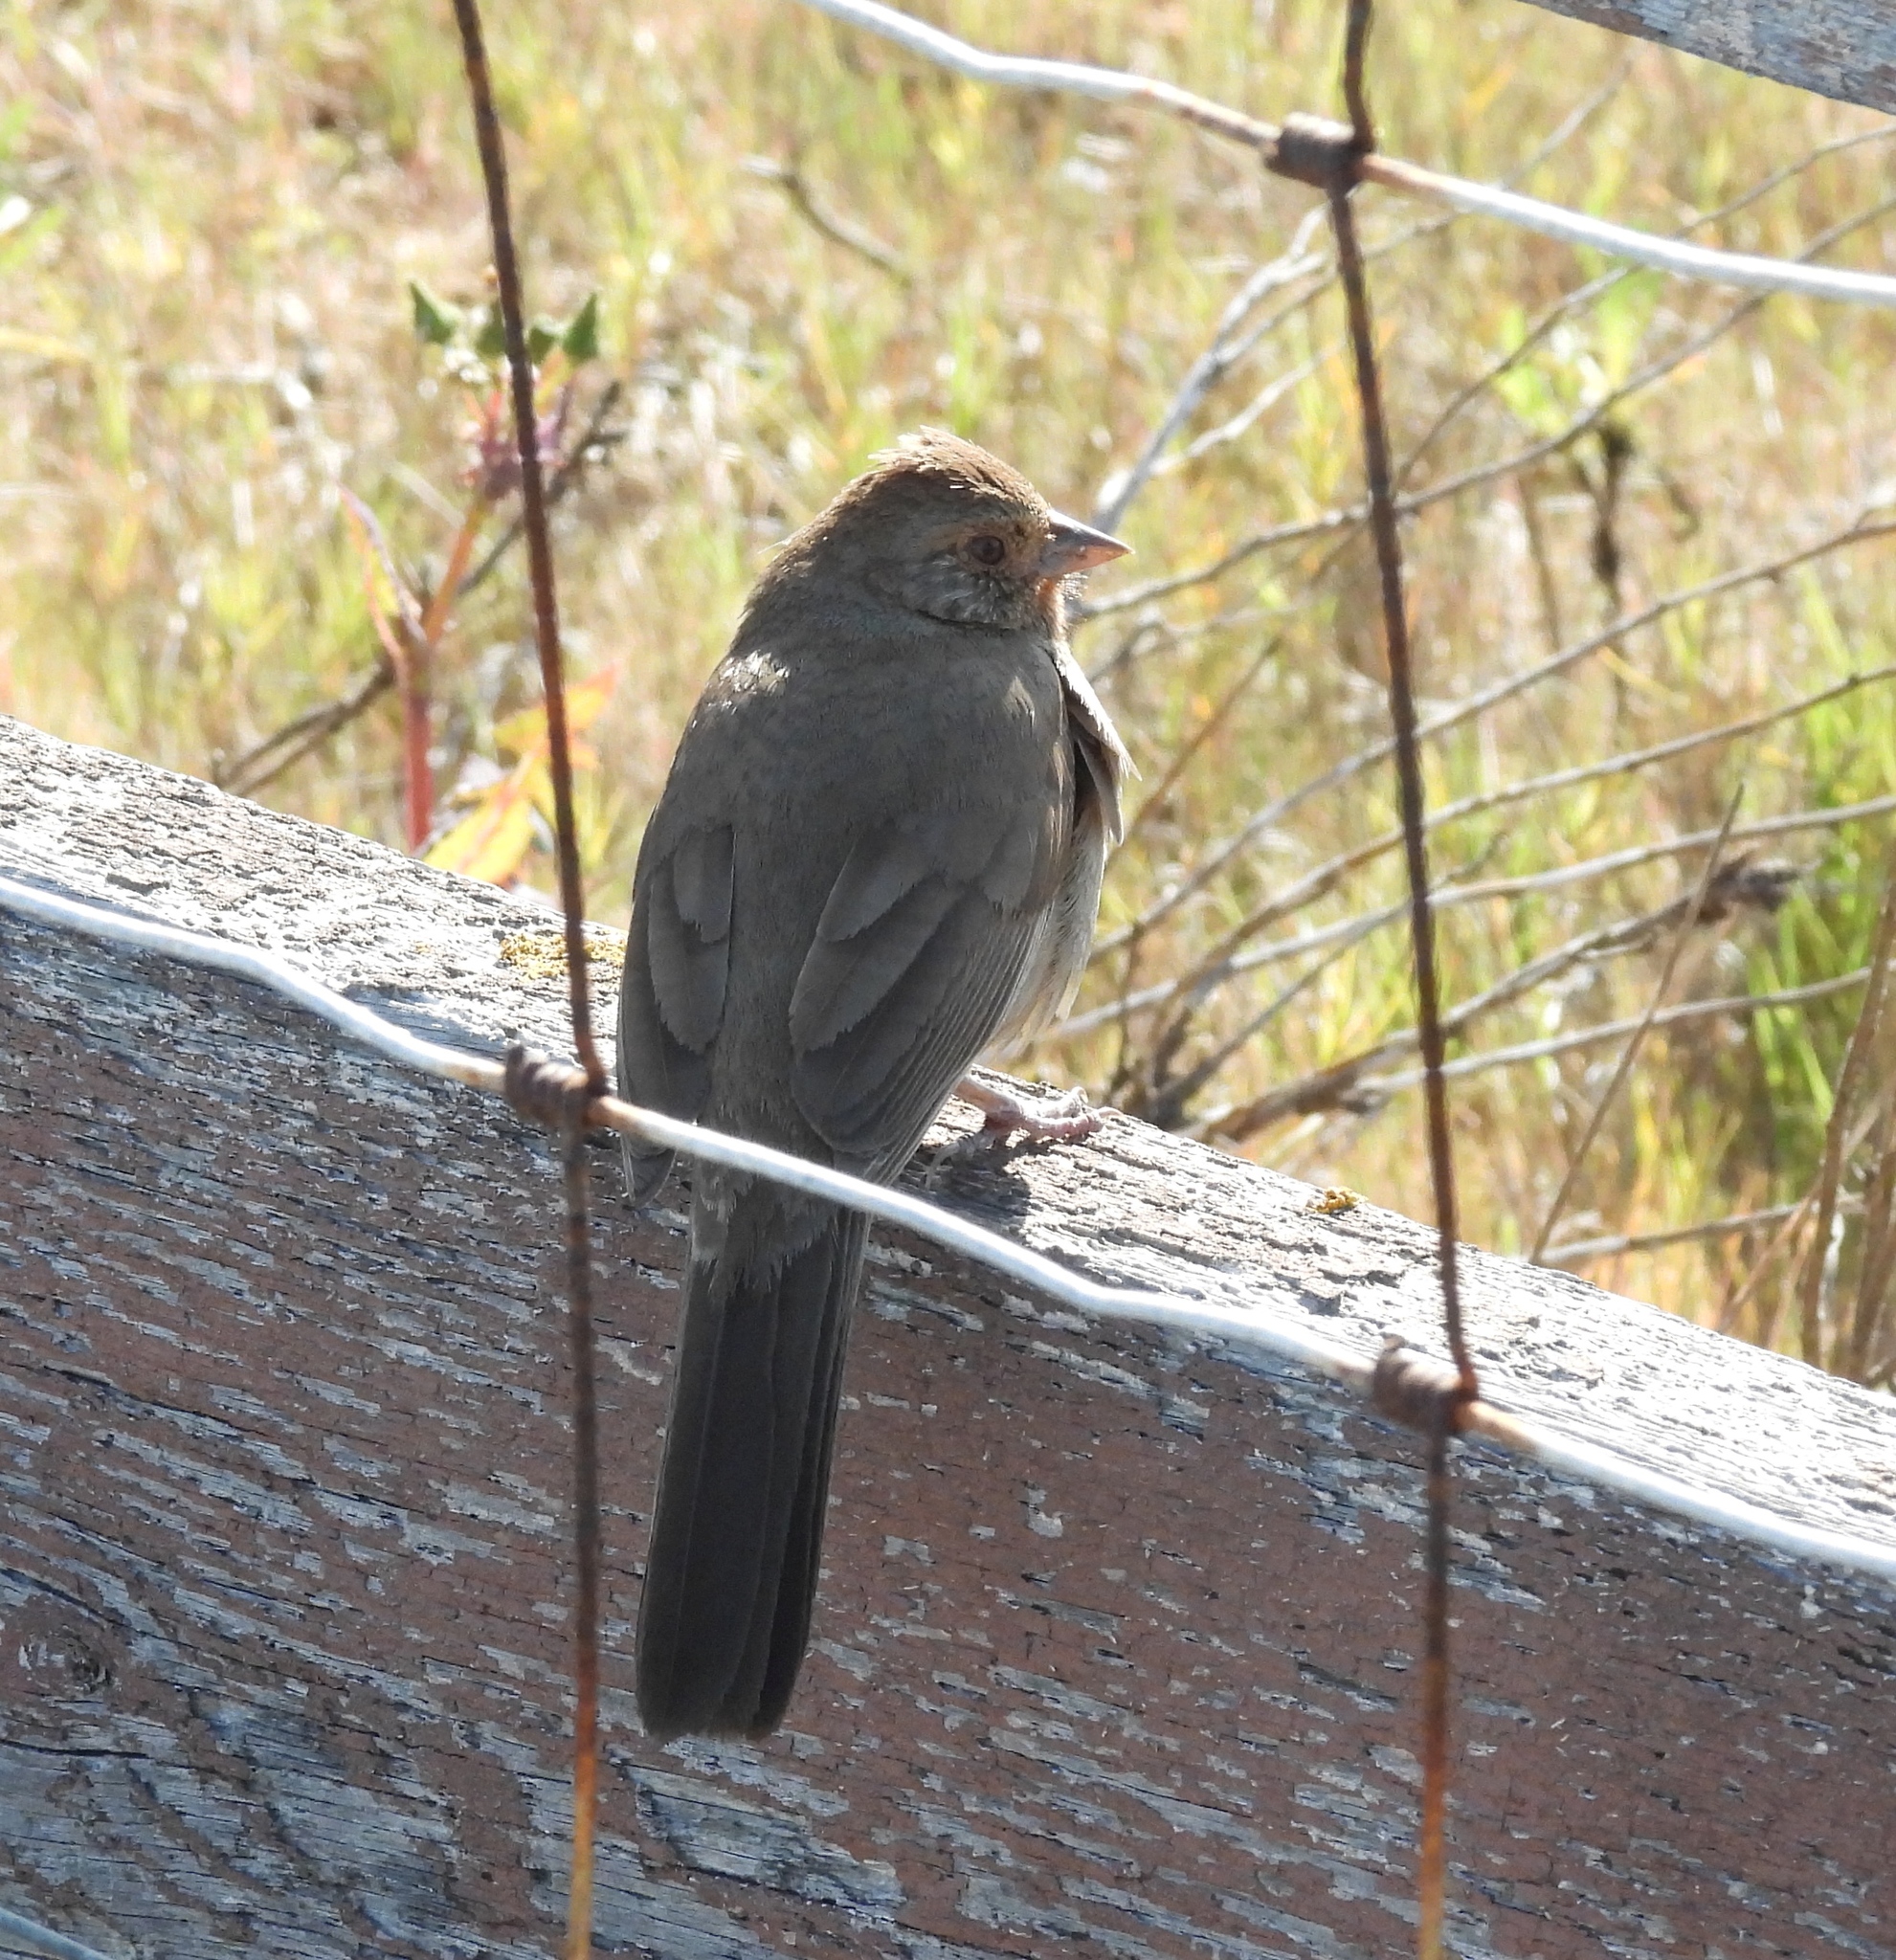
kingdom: Animalia
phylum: Chordata
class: Aves
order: Passeriformes
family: Passerellidae
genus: Melozone
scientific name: Melozone crissalis
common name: California towhee
